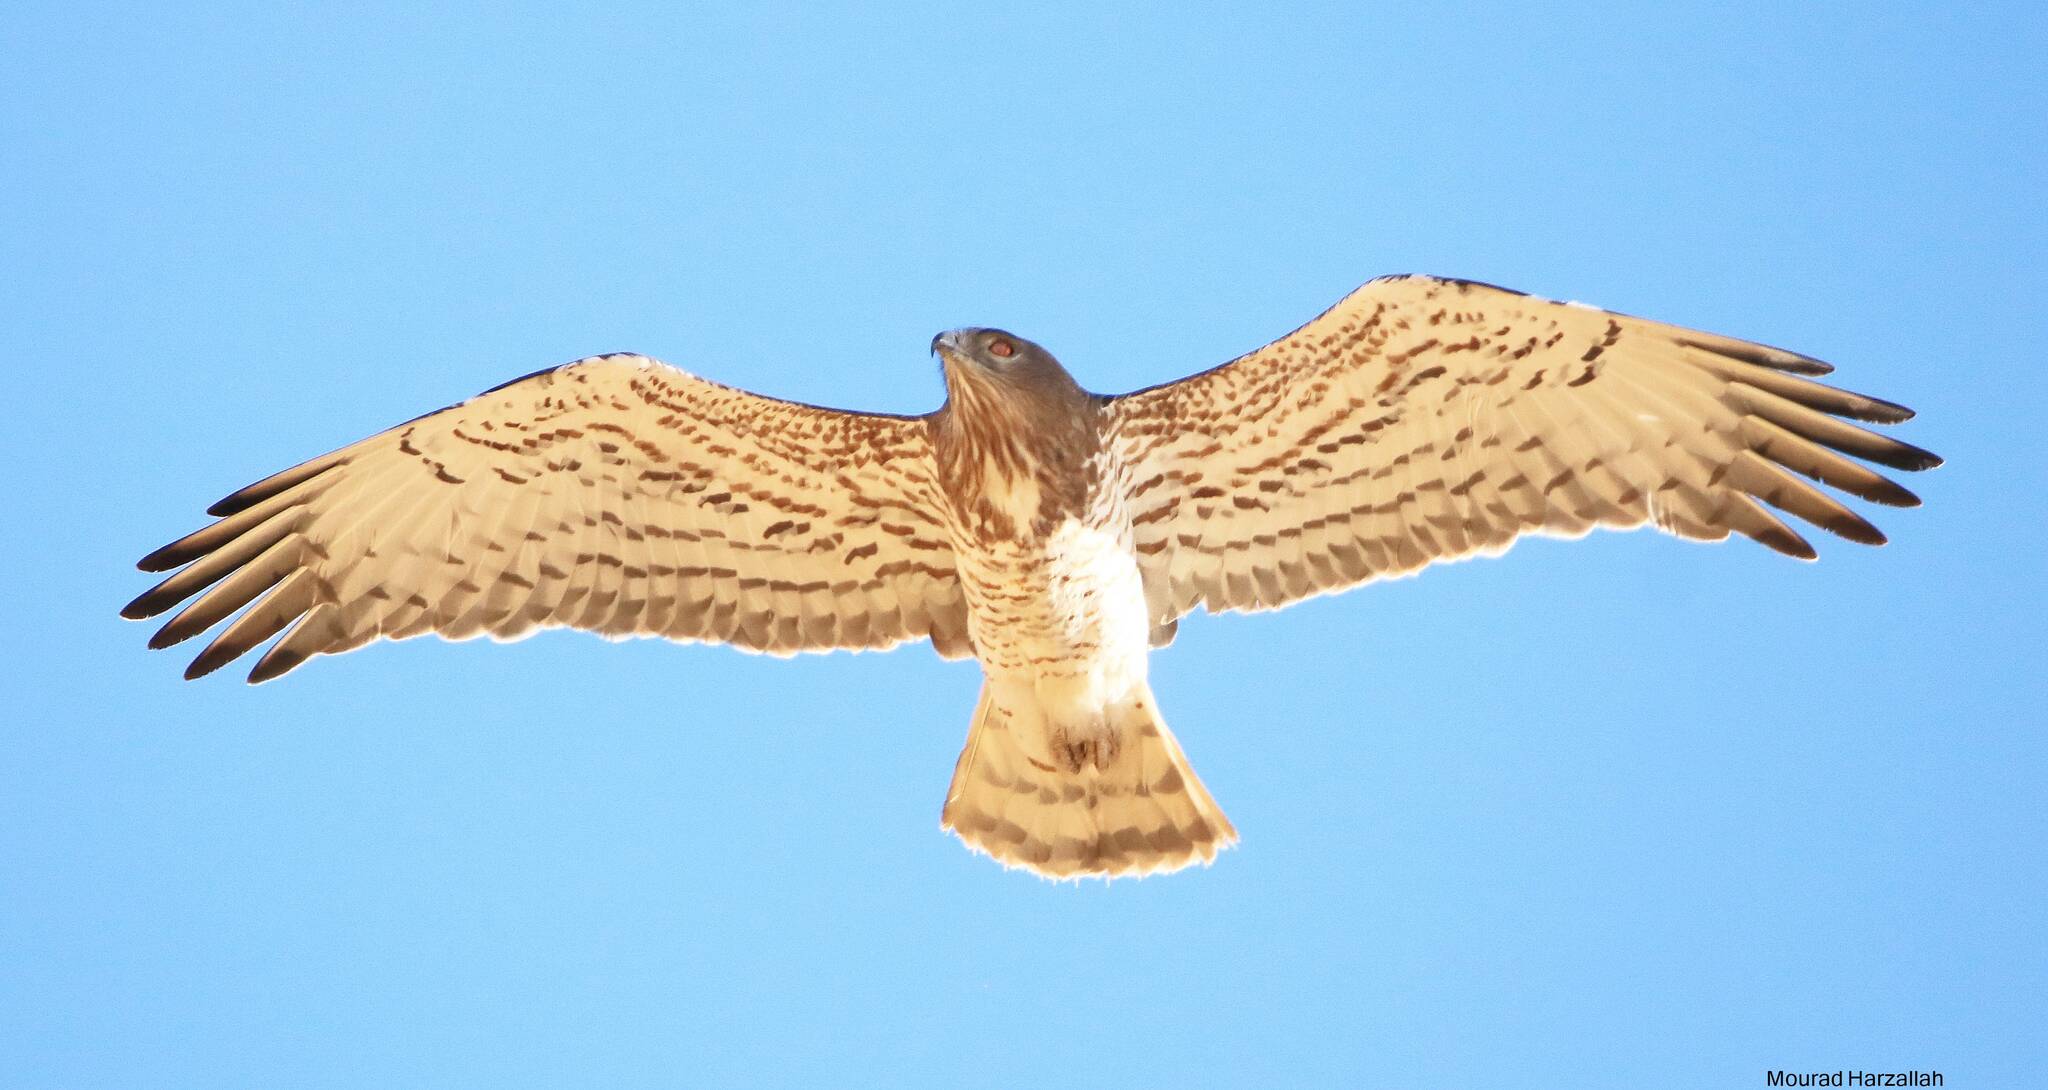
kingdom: Animalia
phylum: Chordata
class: Aves
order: Accipitriformes
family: Accipitridae
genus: Circaetus
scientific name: Circaetus gallicus
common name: Short-toed snake eagle
